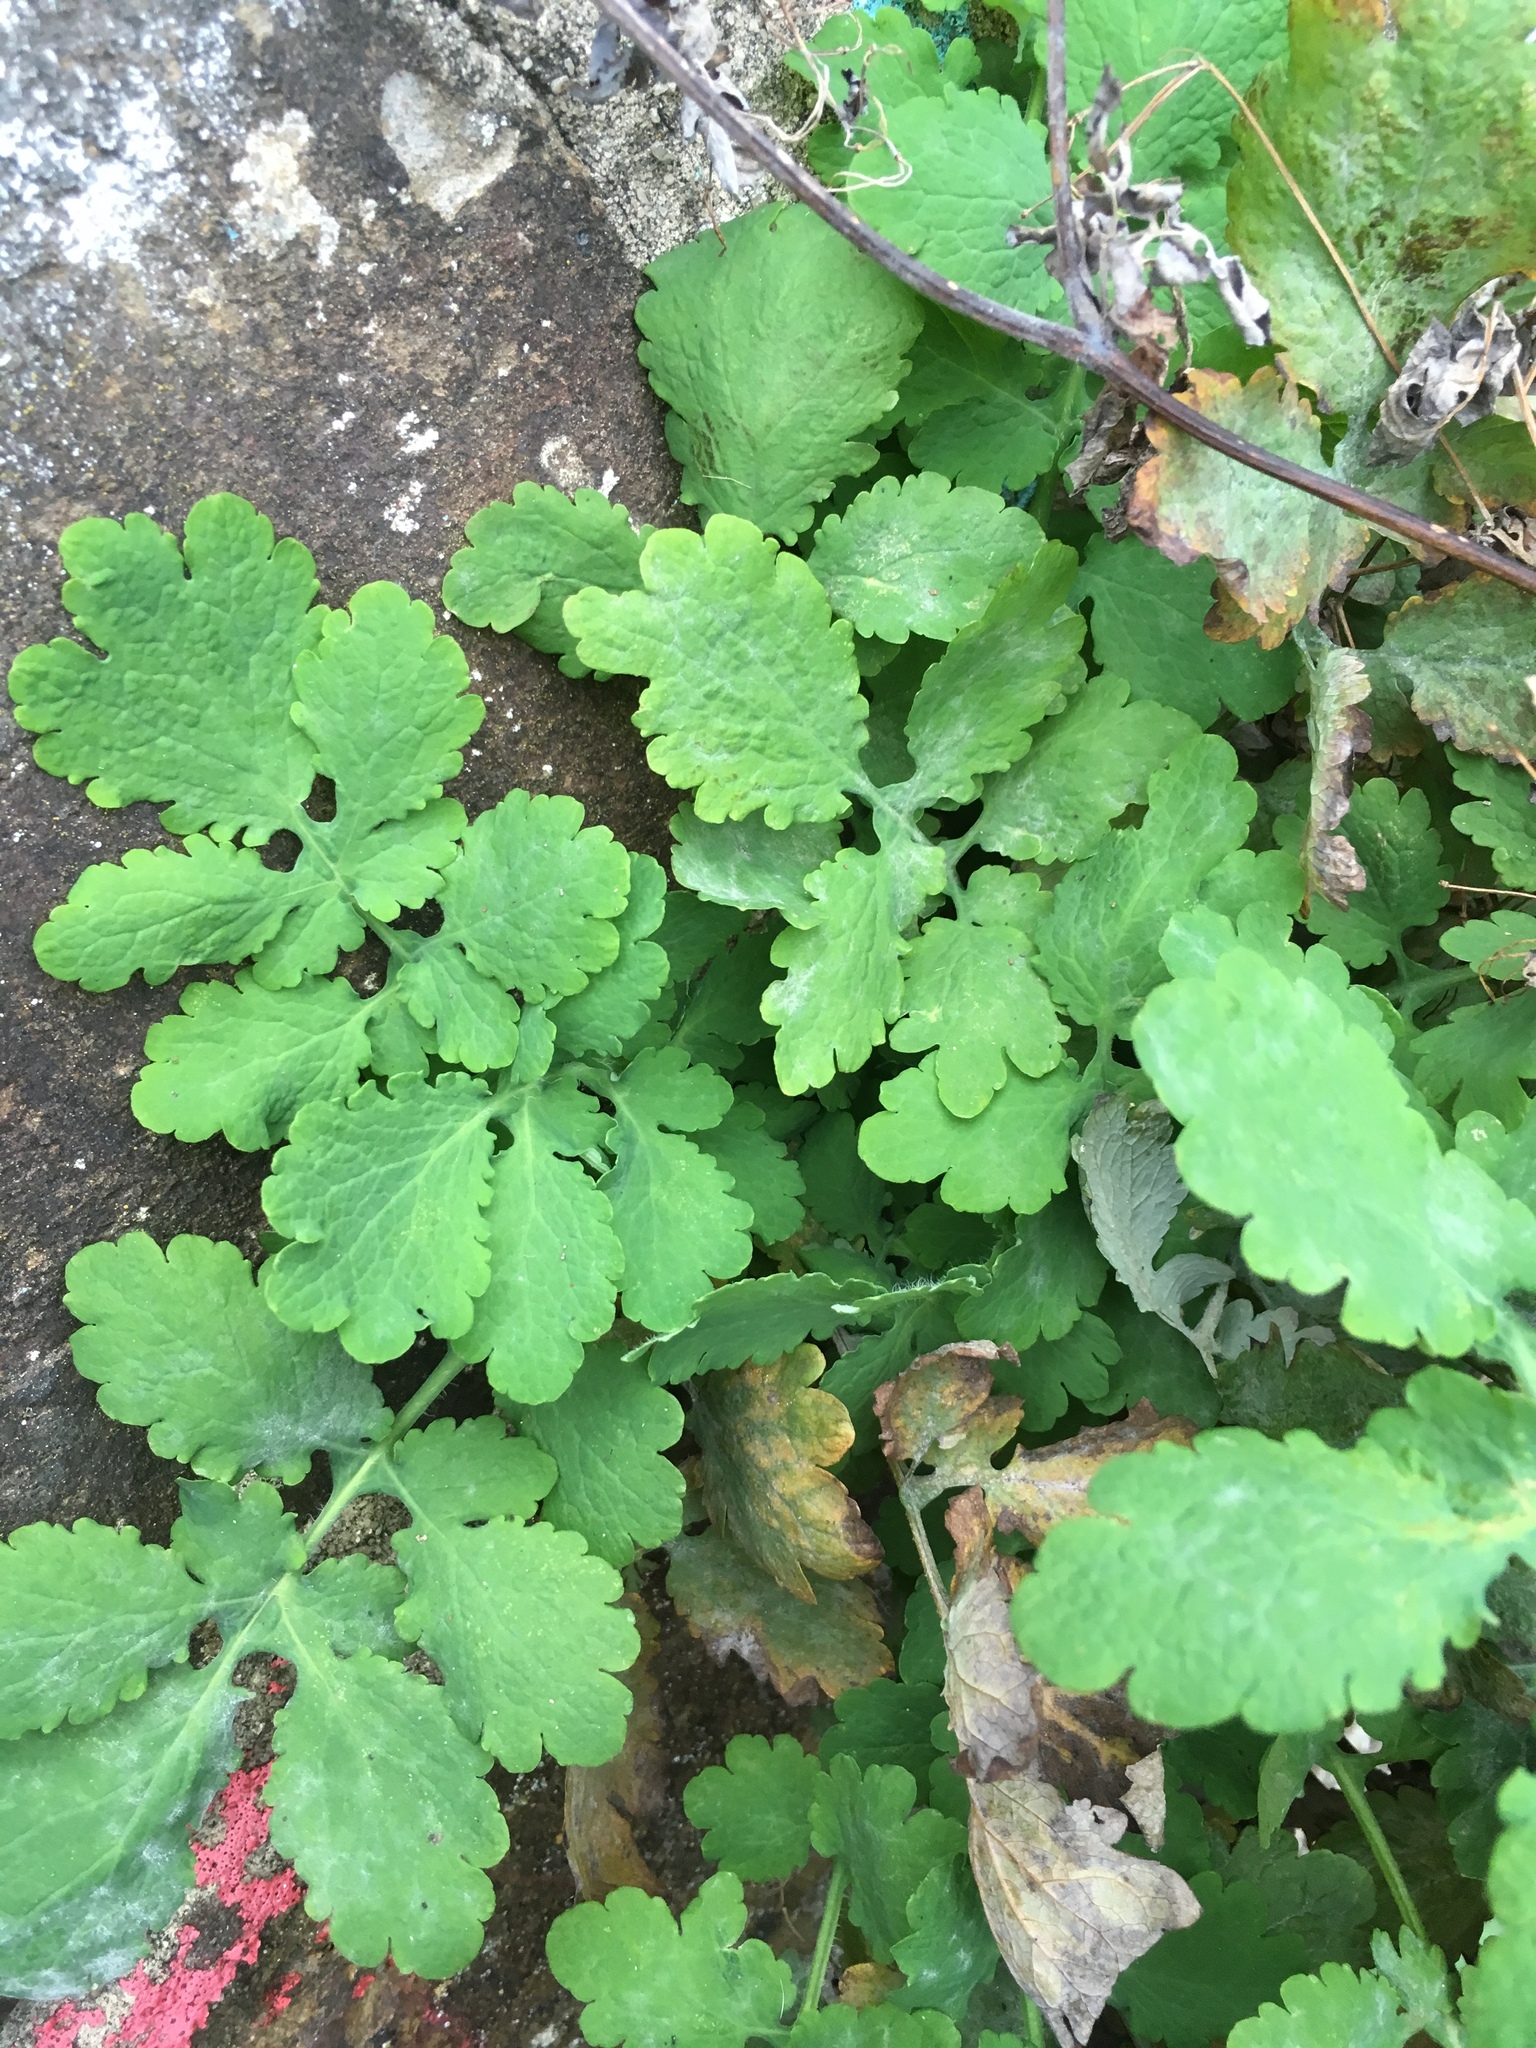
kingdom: Plantae
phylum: Tracheophyta
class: Magnoliopsida
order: Ranunculales
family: Papaveraceae
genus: Chelidonium
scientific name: Chelidonium majus
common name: Greater celandine
